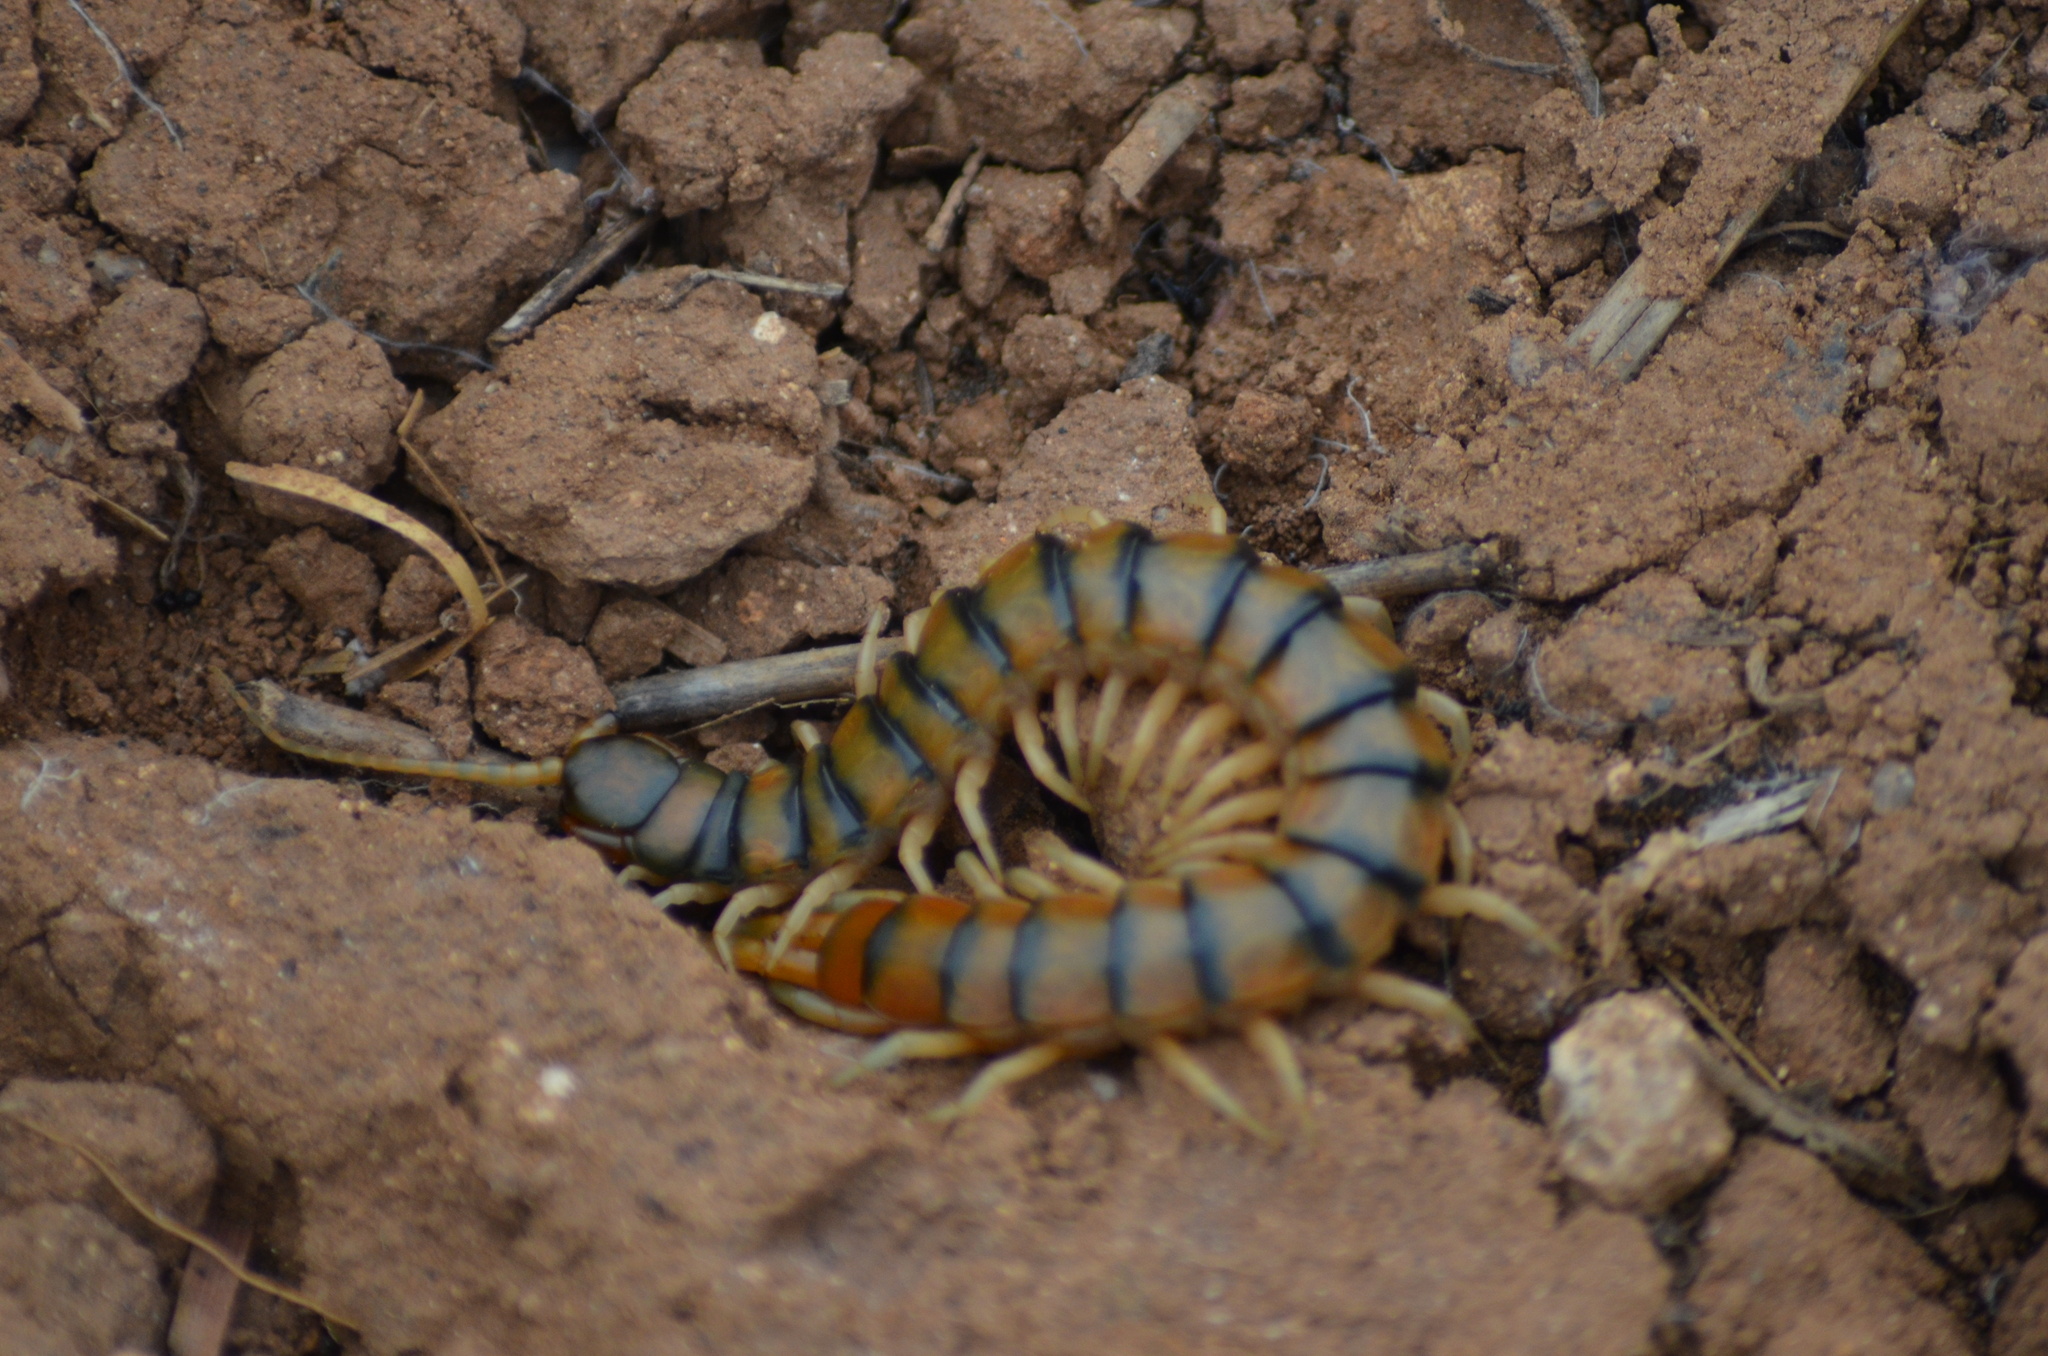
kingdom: Animalia
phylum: Arthropoda
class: Chilopoda
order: Scolopendromorpha
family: Scolopendridae
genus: Scolopendra
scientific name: Scolopendra cingulata
